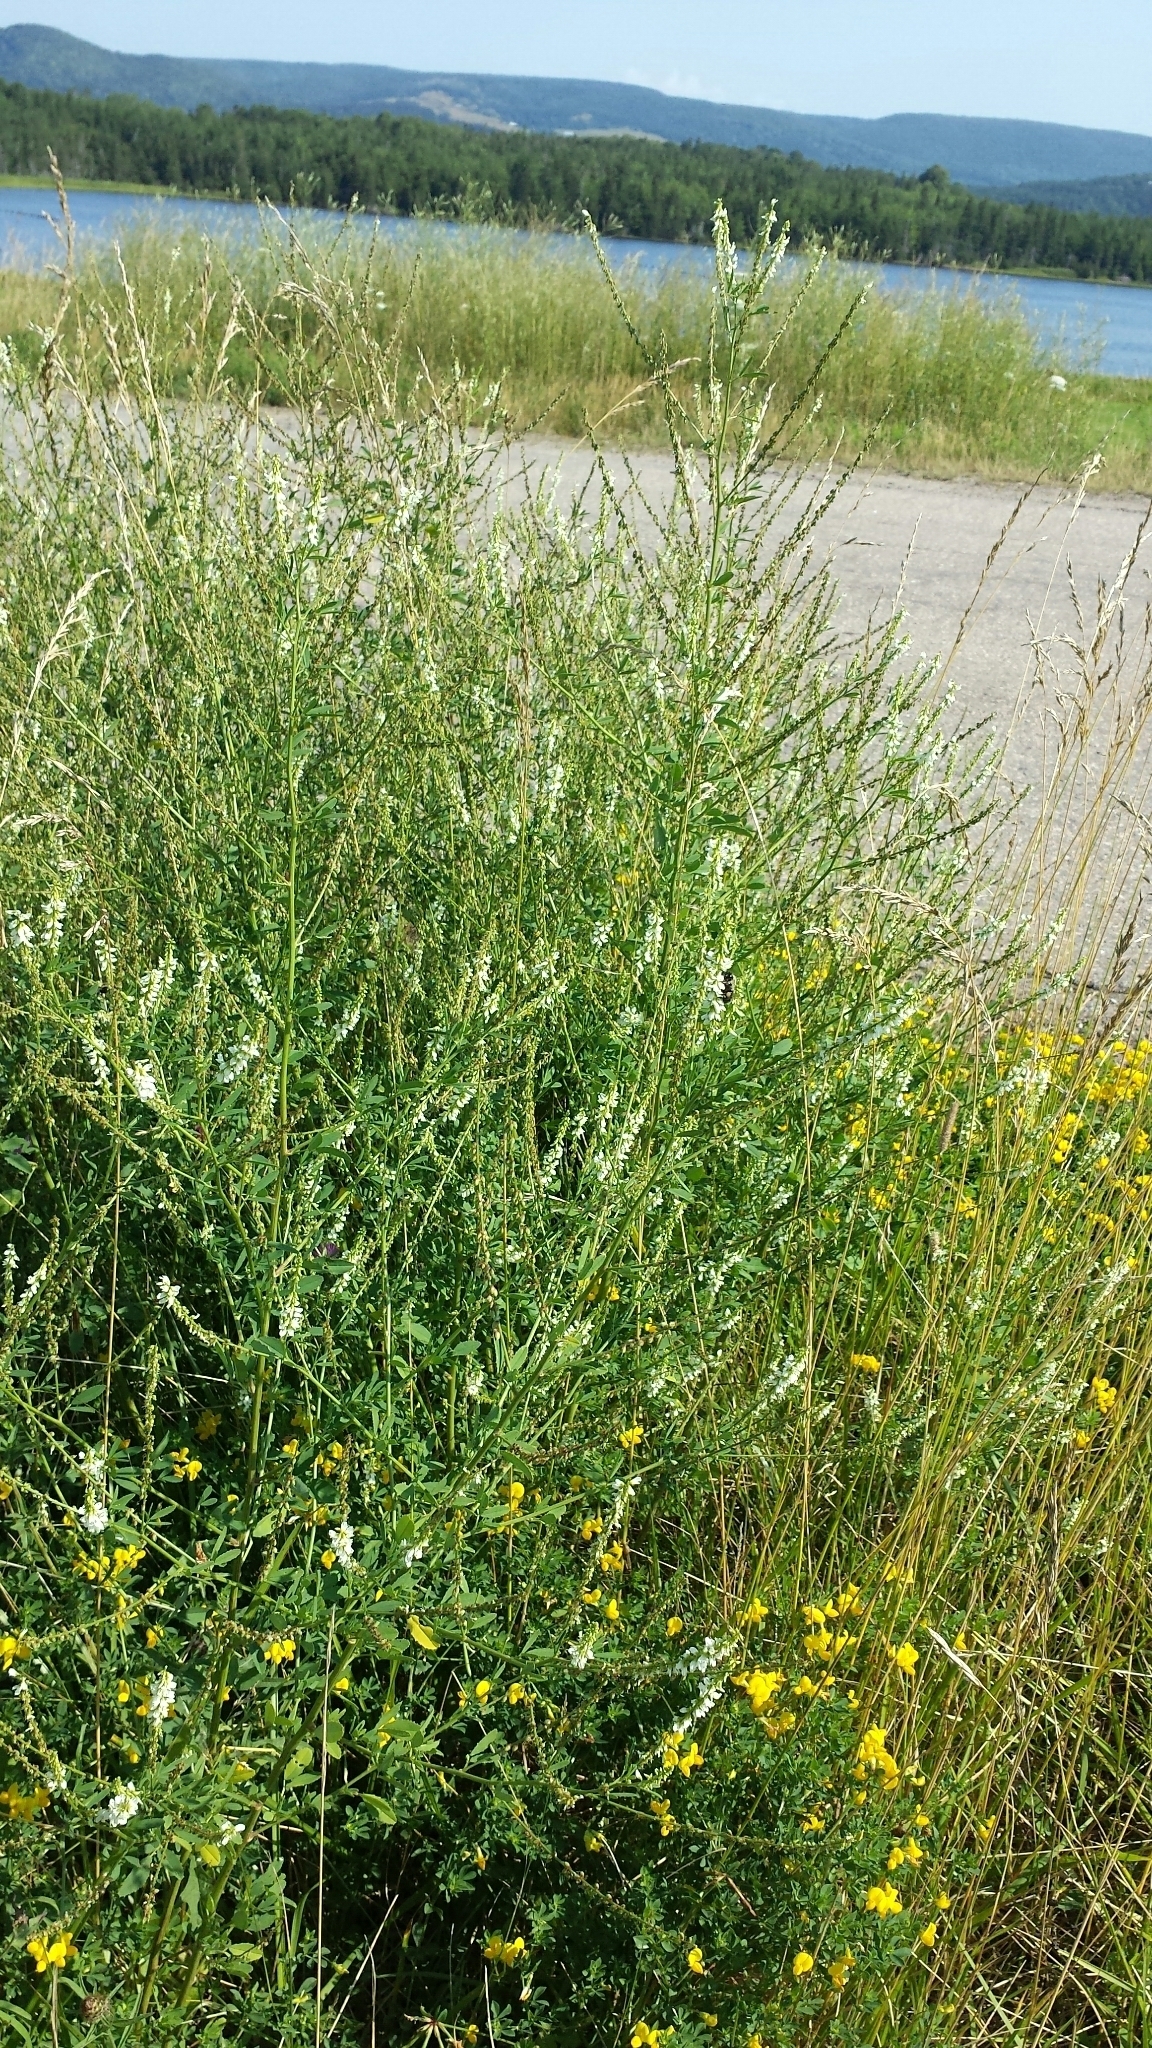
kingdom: Plantae
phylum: Tracheophyta
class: Magnoliopsida
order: Fabales
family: Fabaceae
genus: Melilotus
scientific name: Melilotus albus
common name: White melilot
